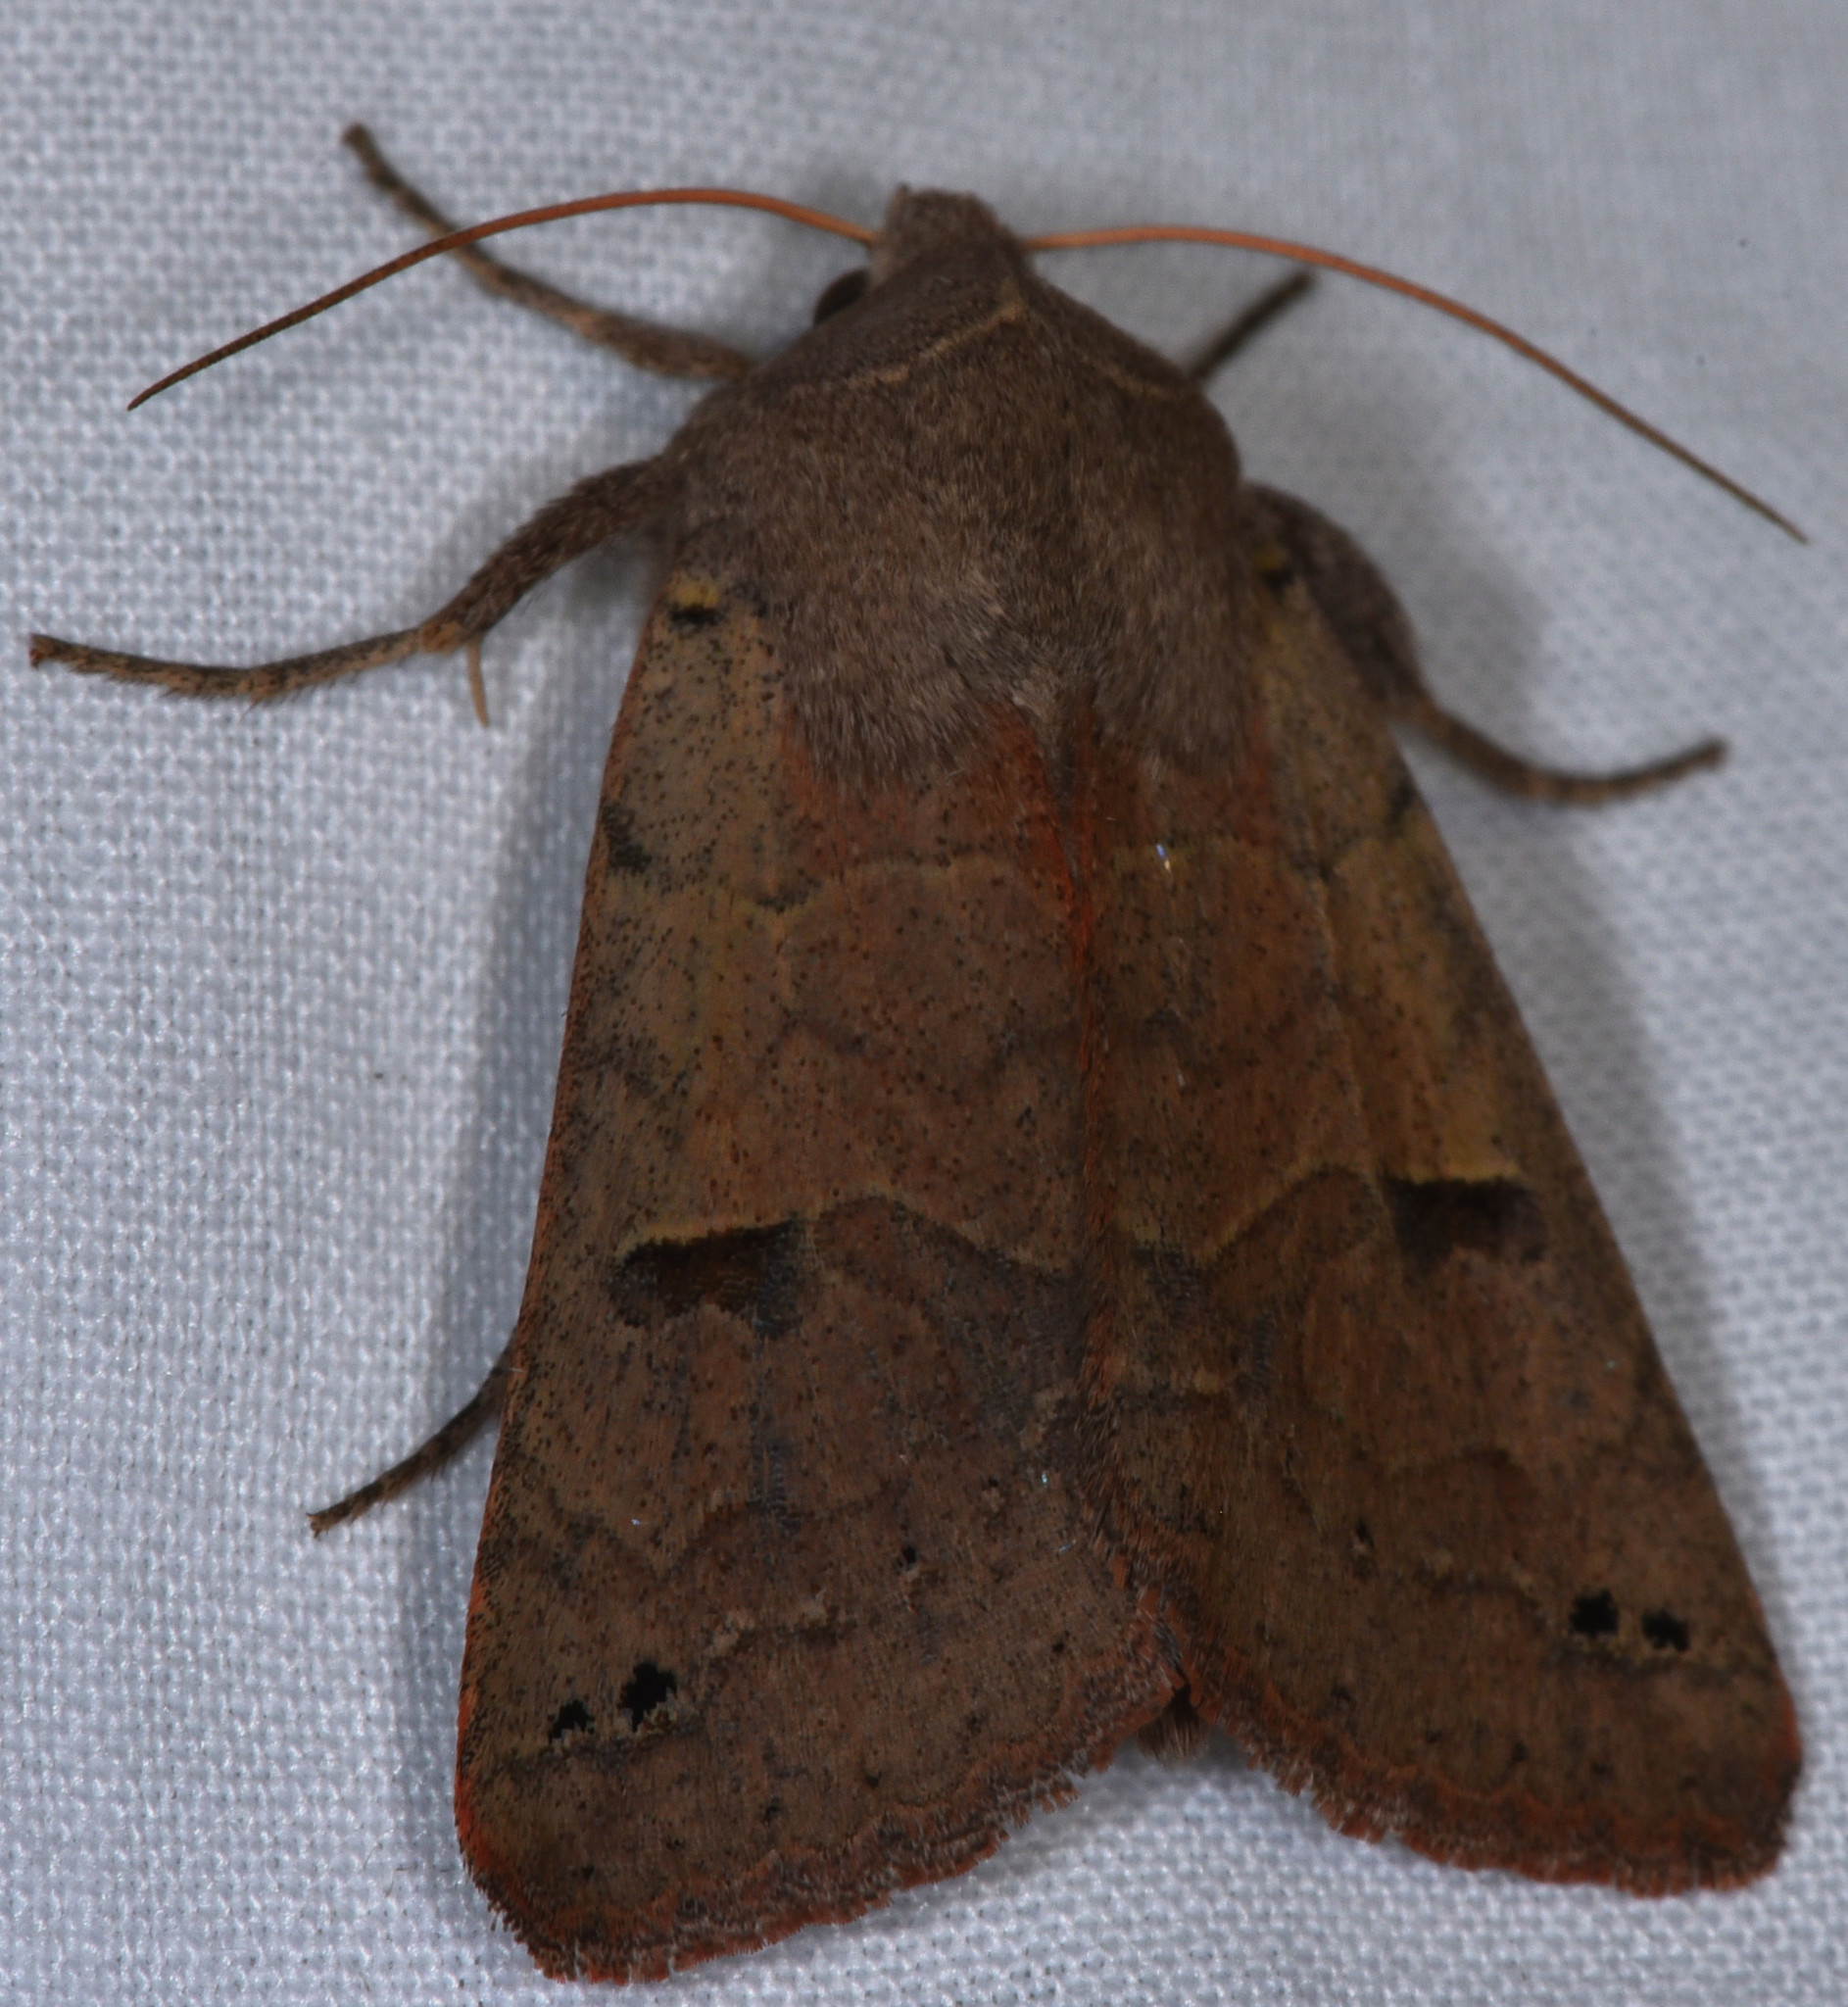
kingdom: Animalia
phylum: Arthropoda
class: Insecta
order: Lepidoptera
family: Erebidae
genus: Cissusa
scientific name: Cissusa indiscreta
